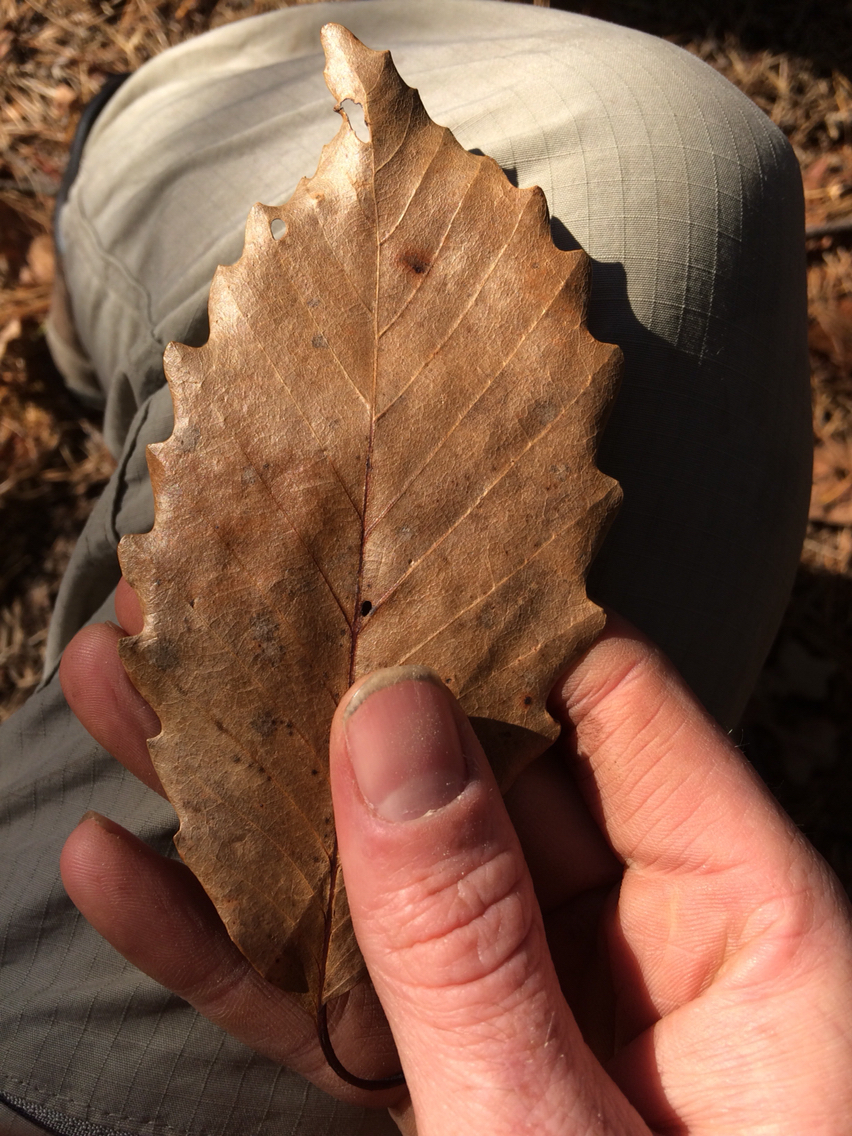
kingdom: Plantae
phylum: Tracheophyta
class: Magnoliopsida
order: Fagales
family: Fagaceae
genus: Quercus
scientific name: Quercus montana
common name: Chestnut oak
